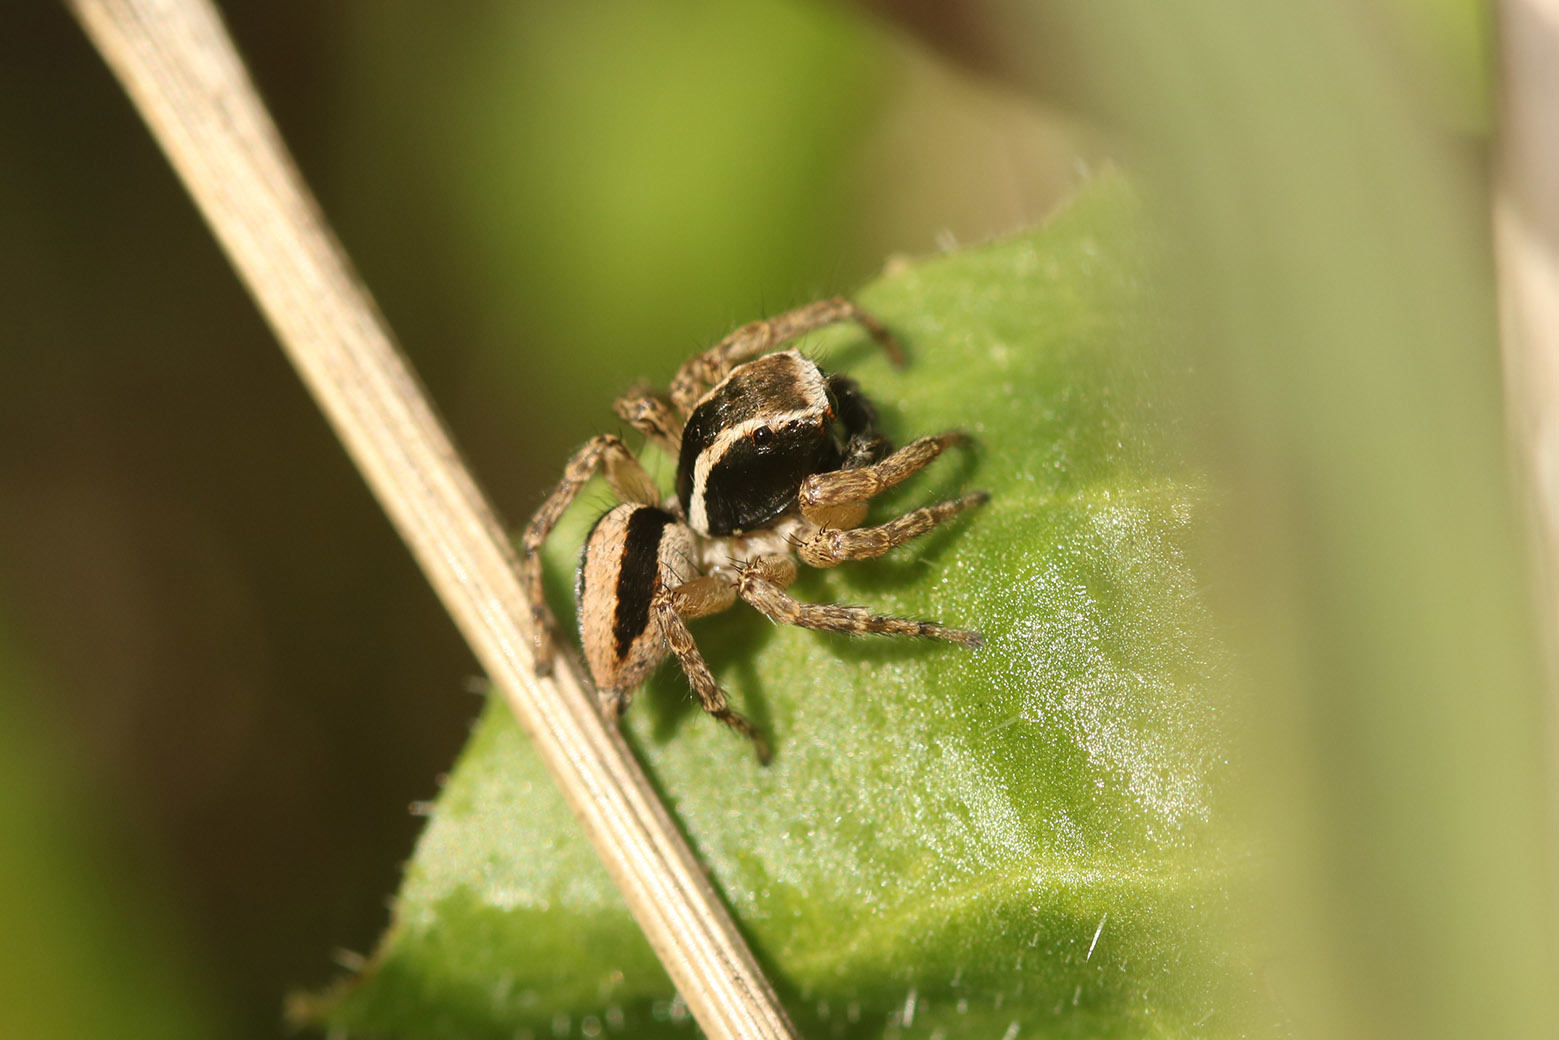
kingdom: Animalia
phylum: Arthropoda
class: Arachnida
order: Araneae
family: Salticidae
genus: Aphirape
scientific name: Aphirape
